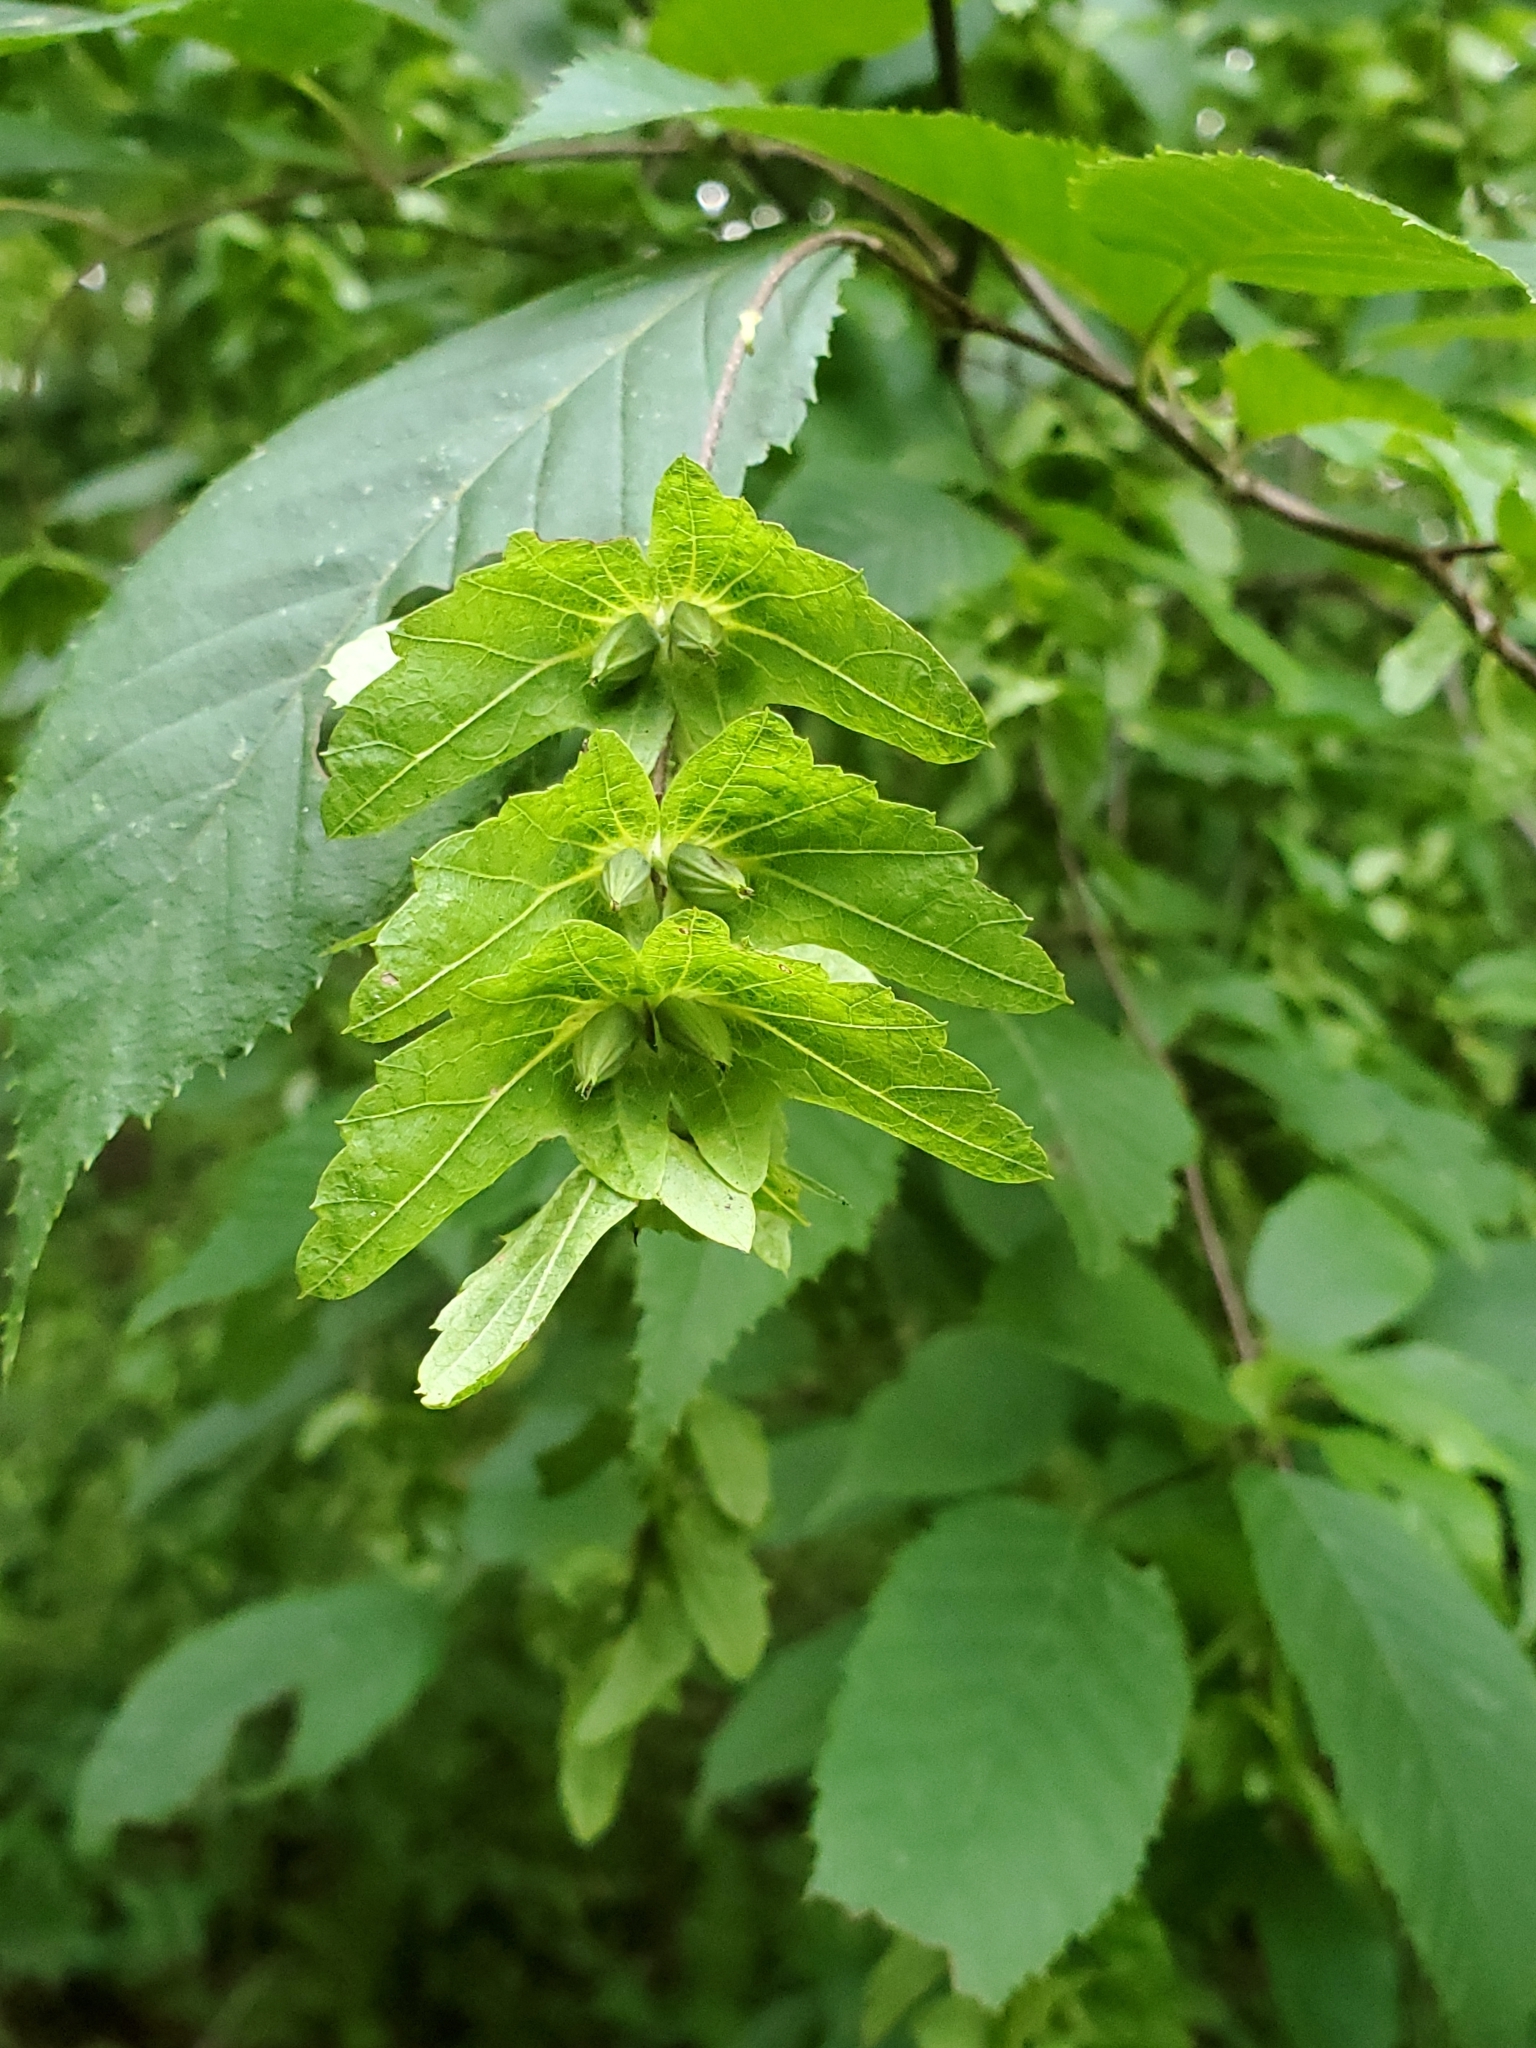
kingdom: Plantae
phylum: Tracheophyta
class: Magnoliopsida
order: Fagales
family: Betulaceae
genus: Carpinus
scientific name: Carpinus caroliniana
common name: American hornbeam
